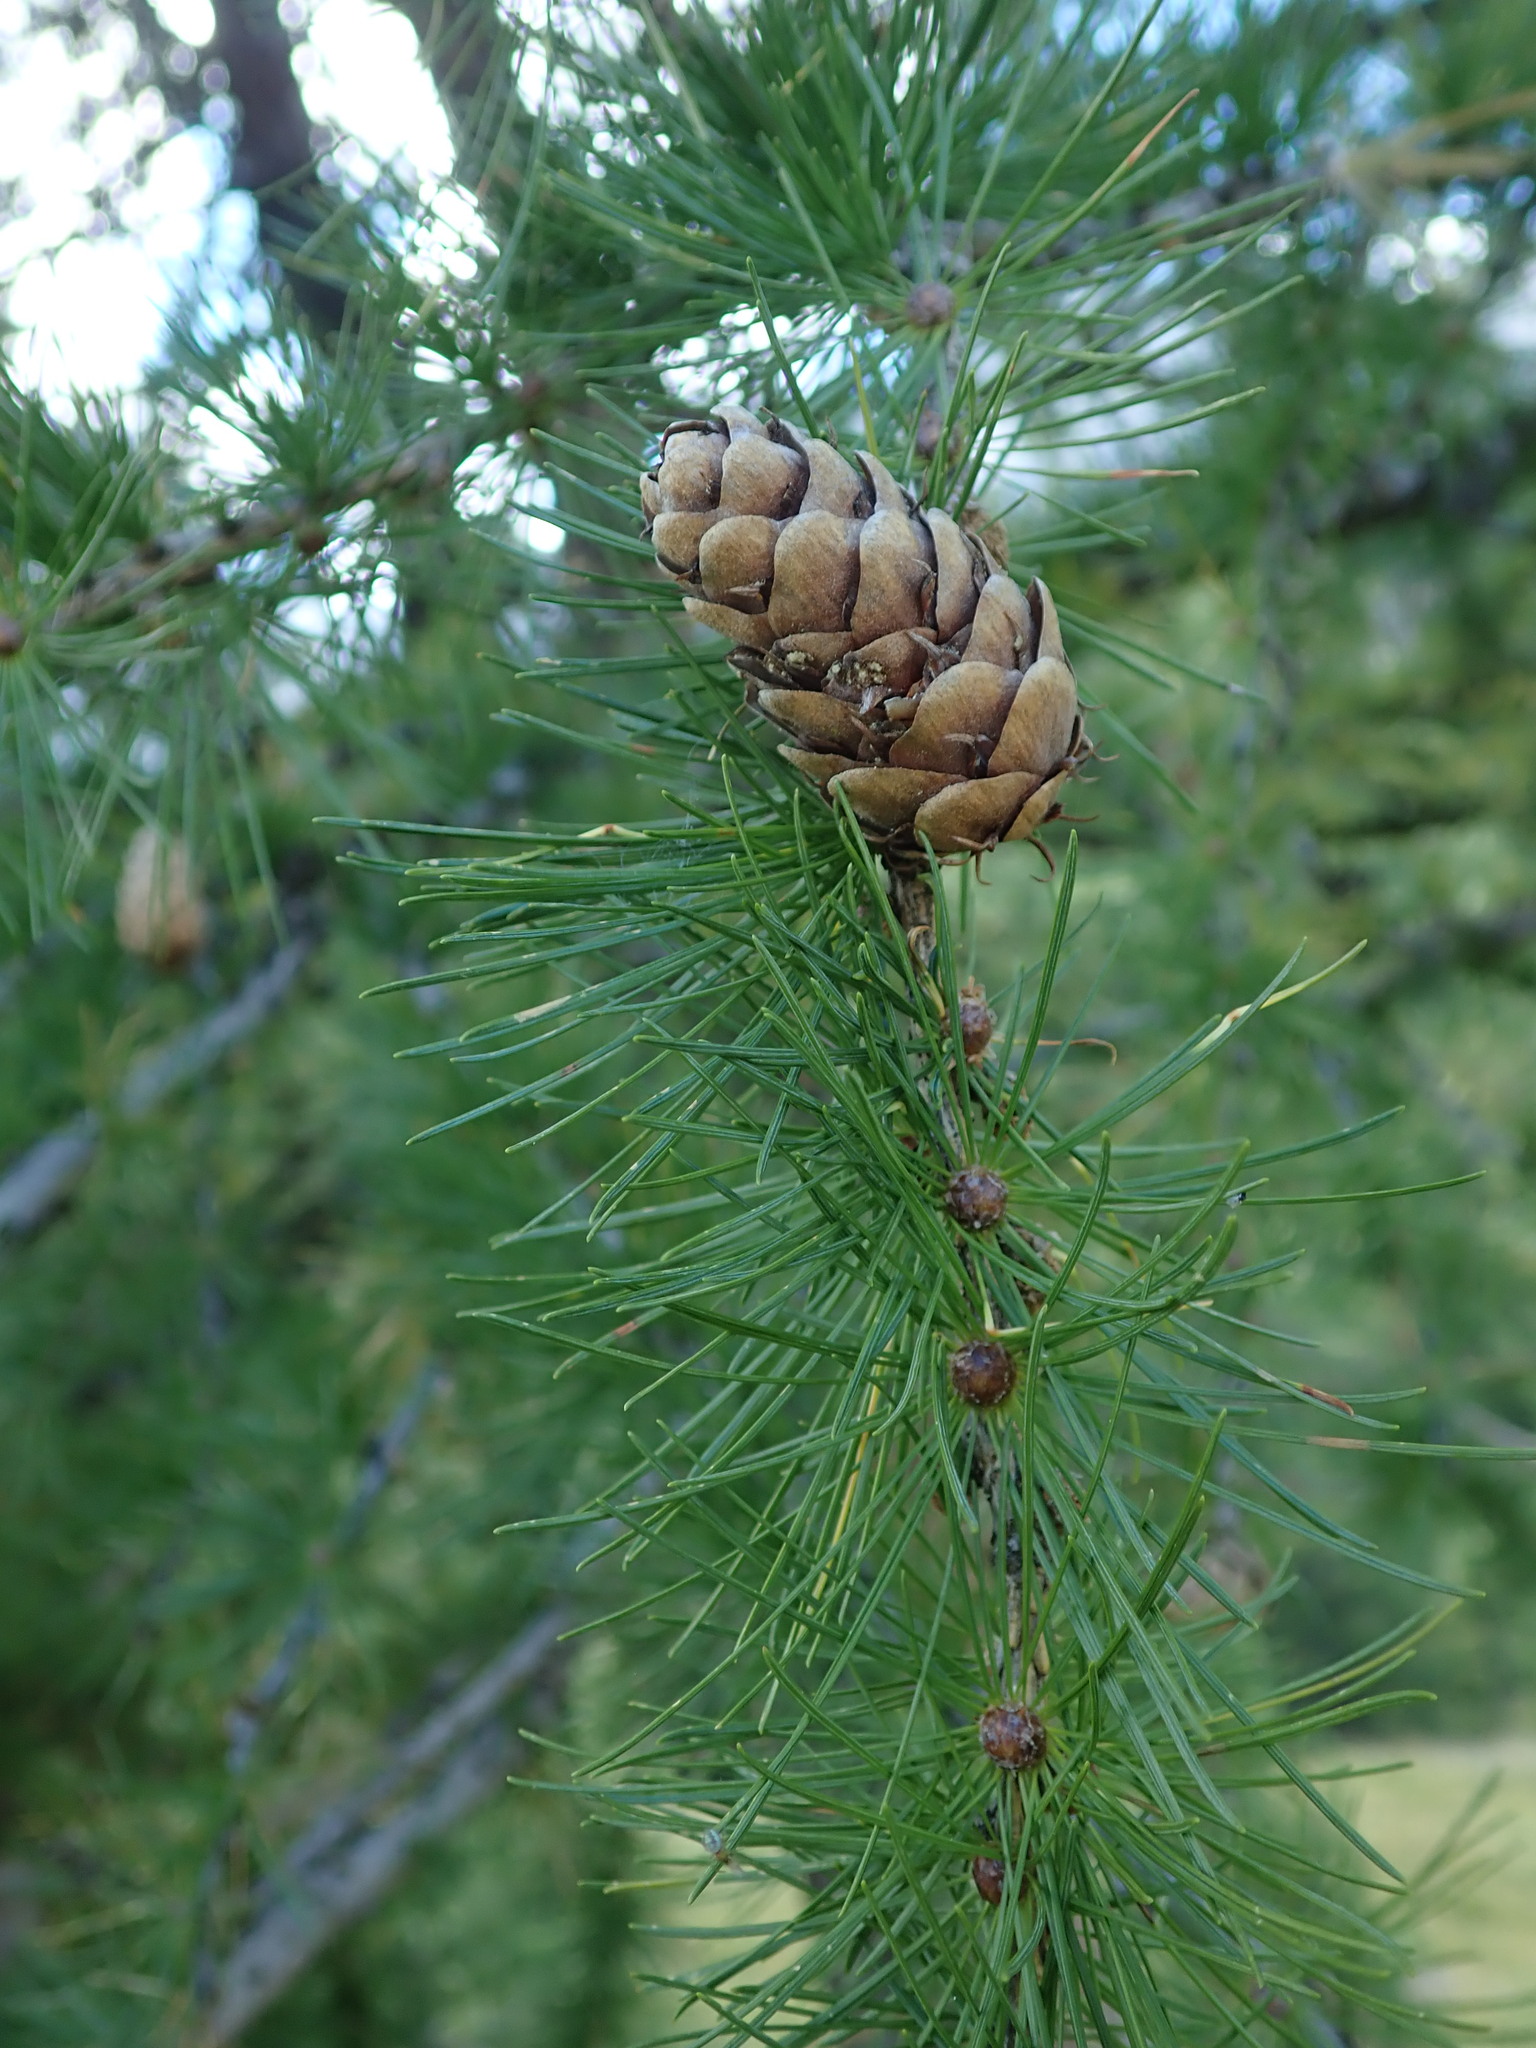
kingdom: Plantae
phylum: Tracheophyta
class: Pinopsida
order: Pinales
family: Pinaceae
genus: Larix
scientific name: Larix decidua
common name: European larch
